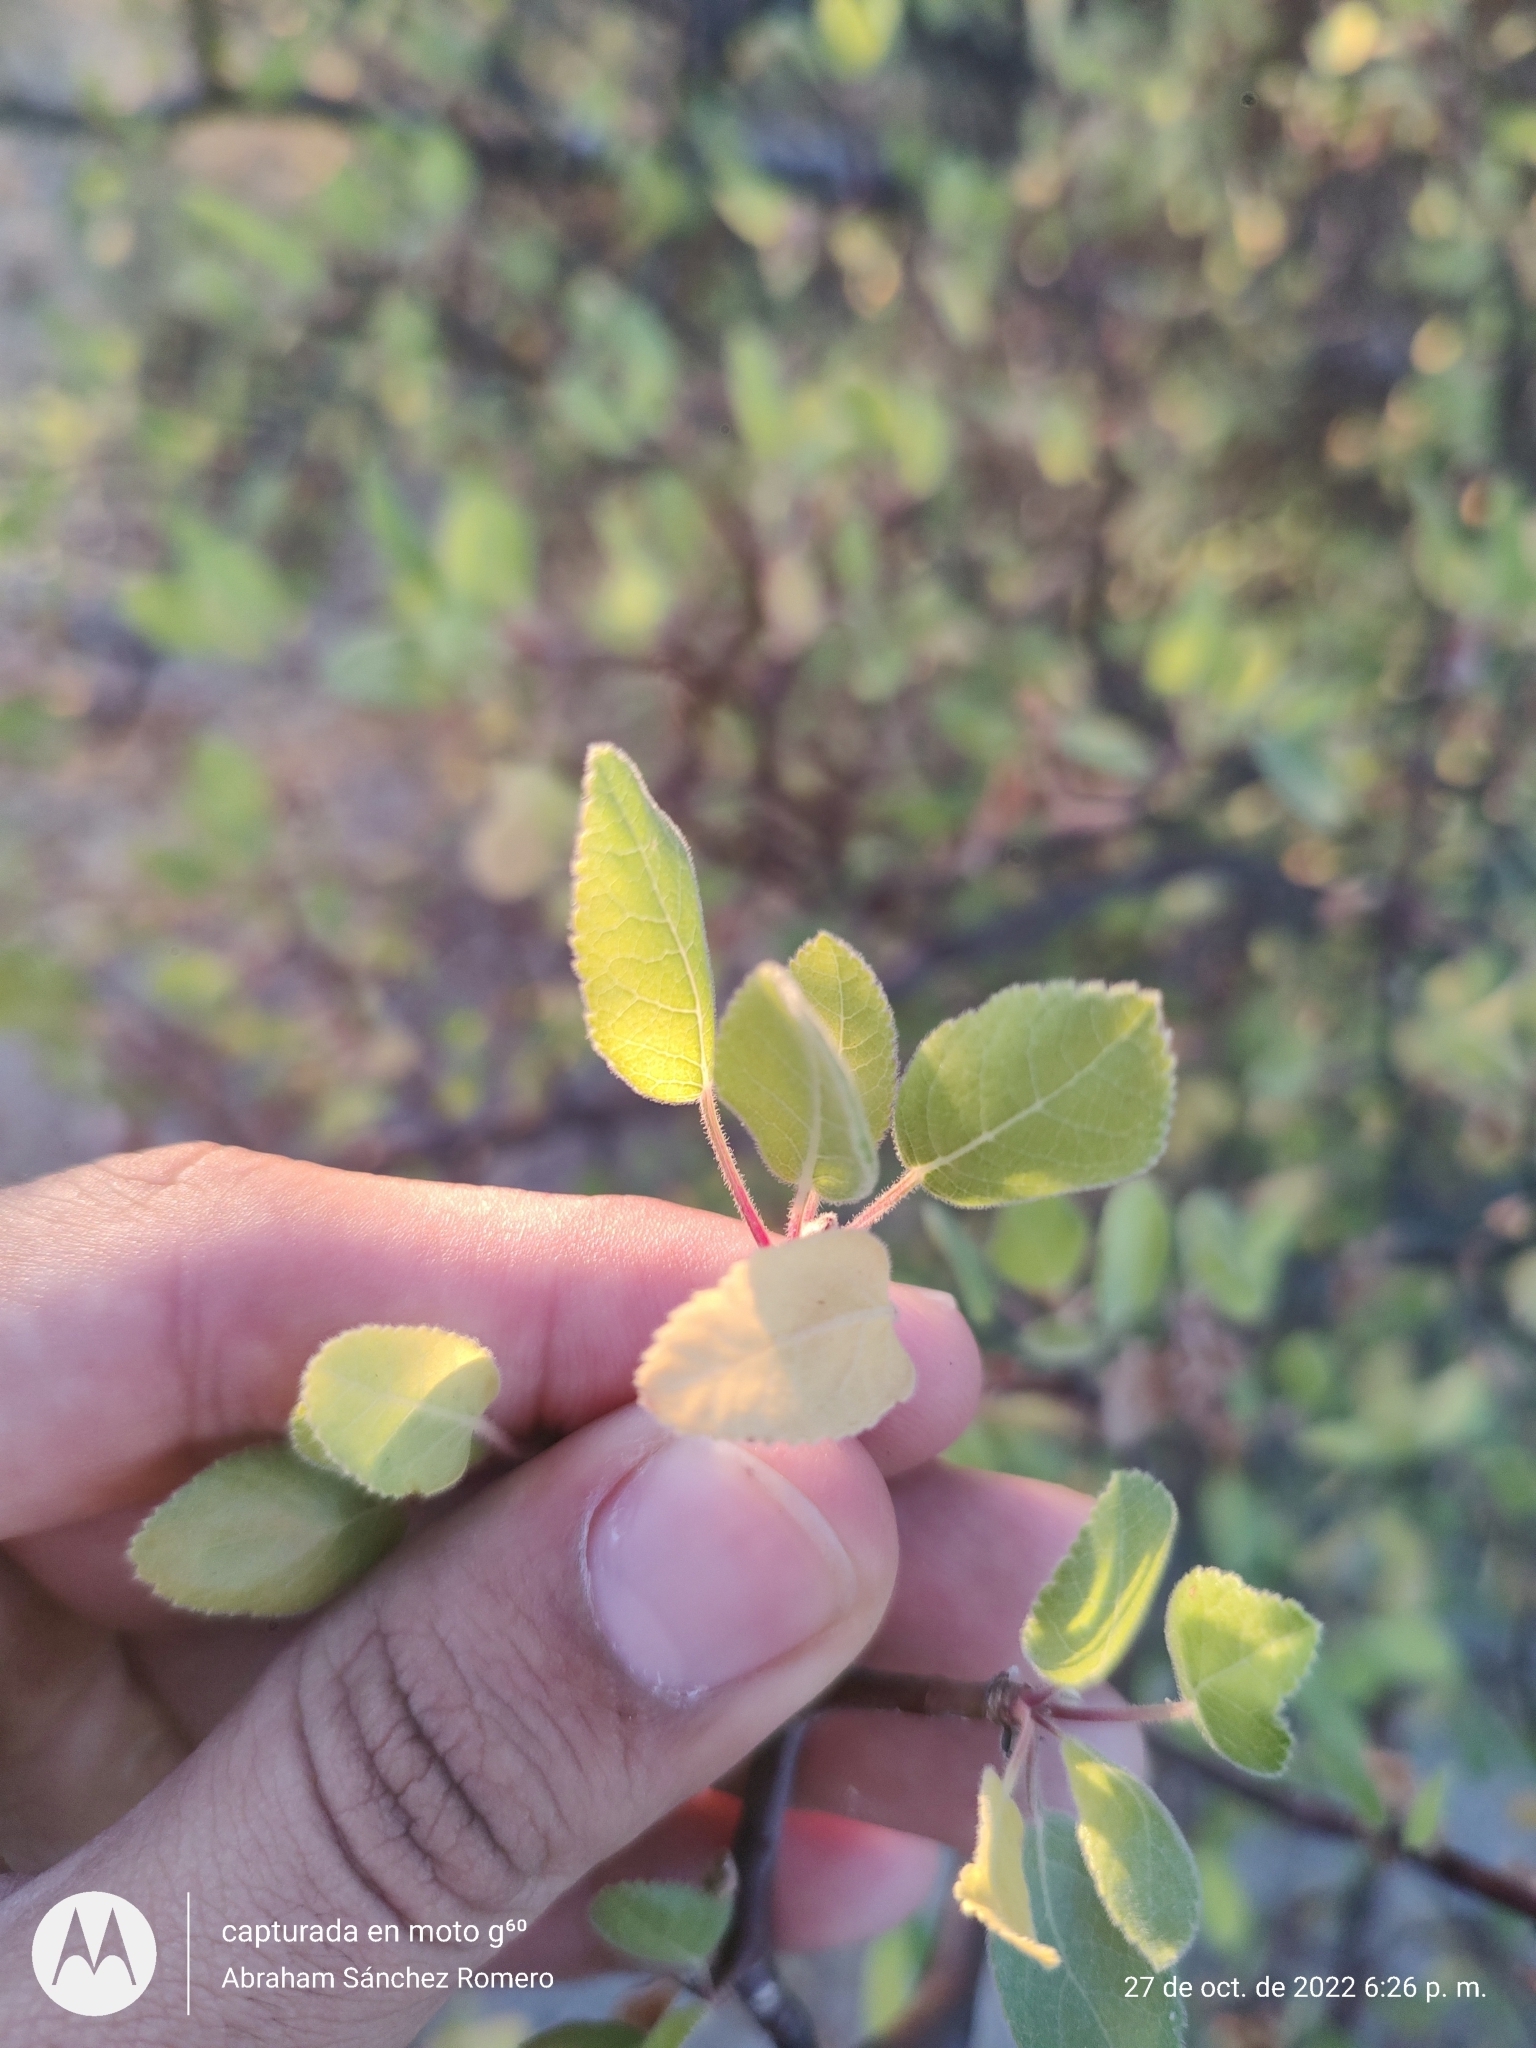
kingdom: Plantae
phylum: Tracheophyta
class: Magnoliopsida
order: Sapindales
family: Burseraceae
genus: Bursera
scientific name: Bursera epinnata
